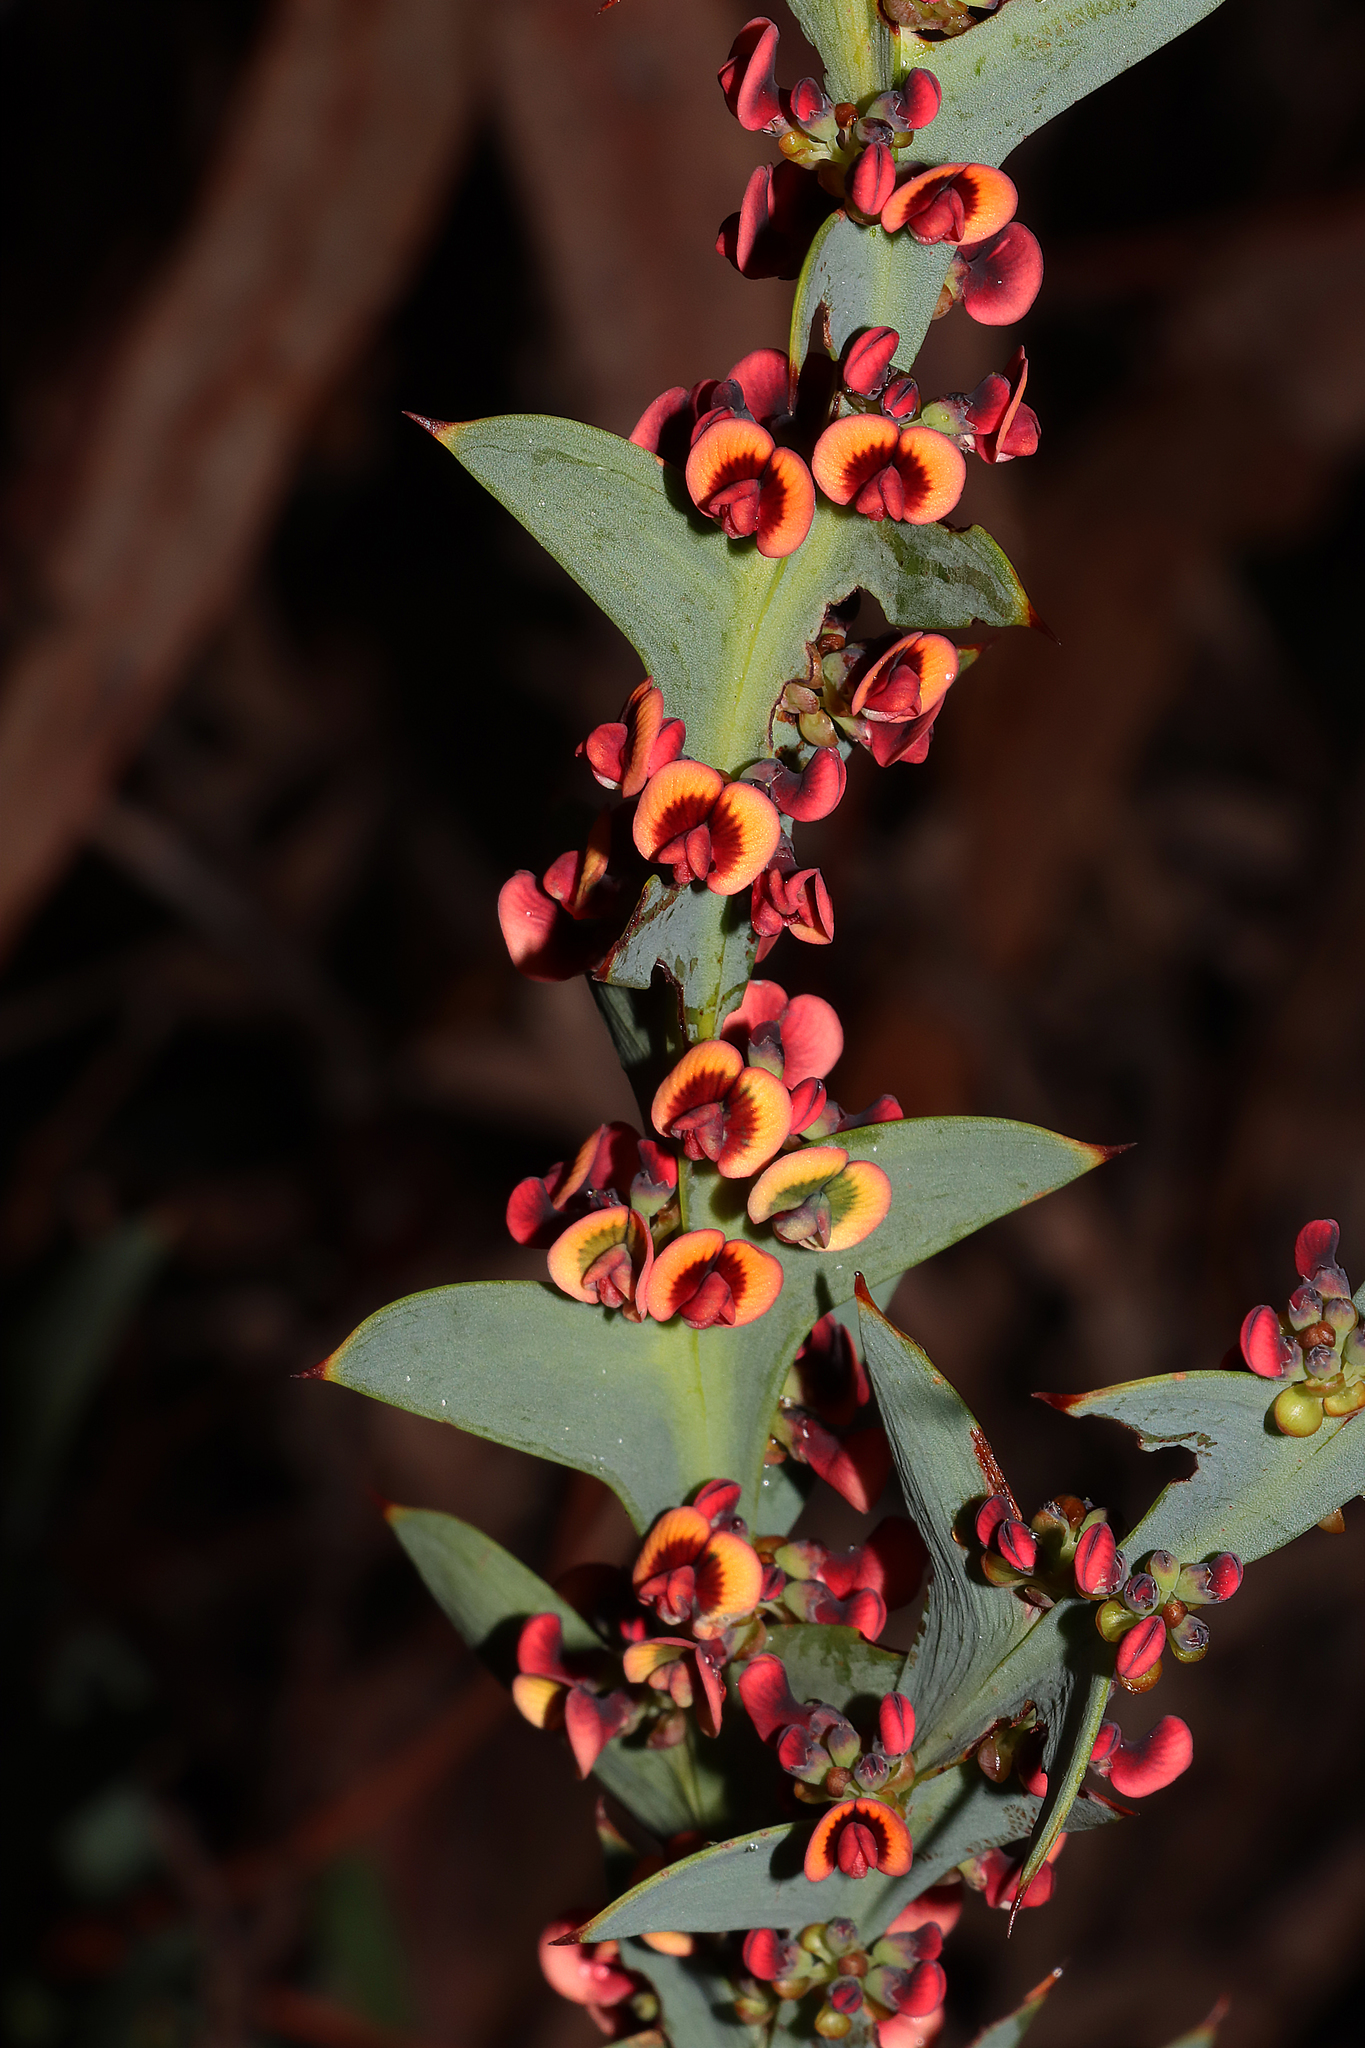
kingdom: Plantae
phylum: Tracheophyta
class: Magnoliopsida
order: Fabales
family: Fabaceae
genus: Daviesia
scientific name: Daviesia decurrens
